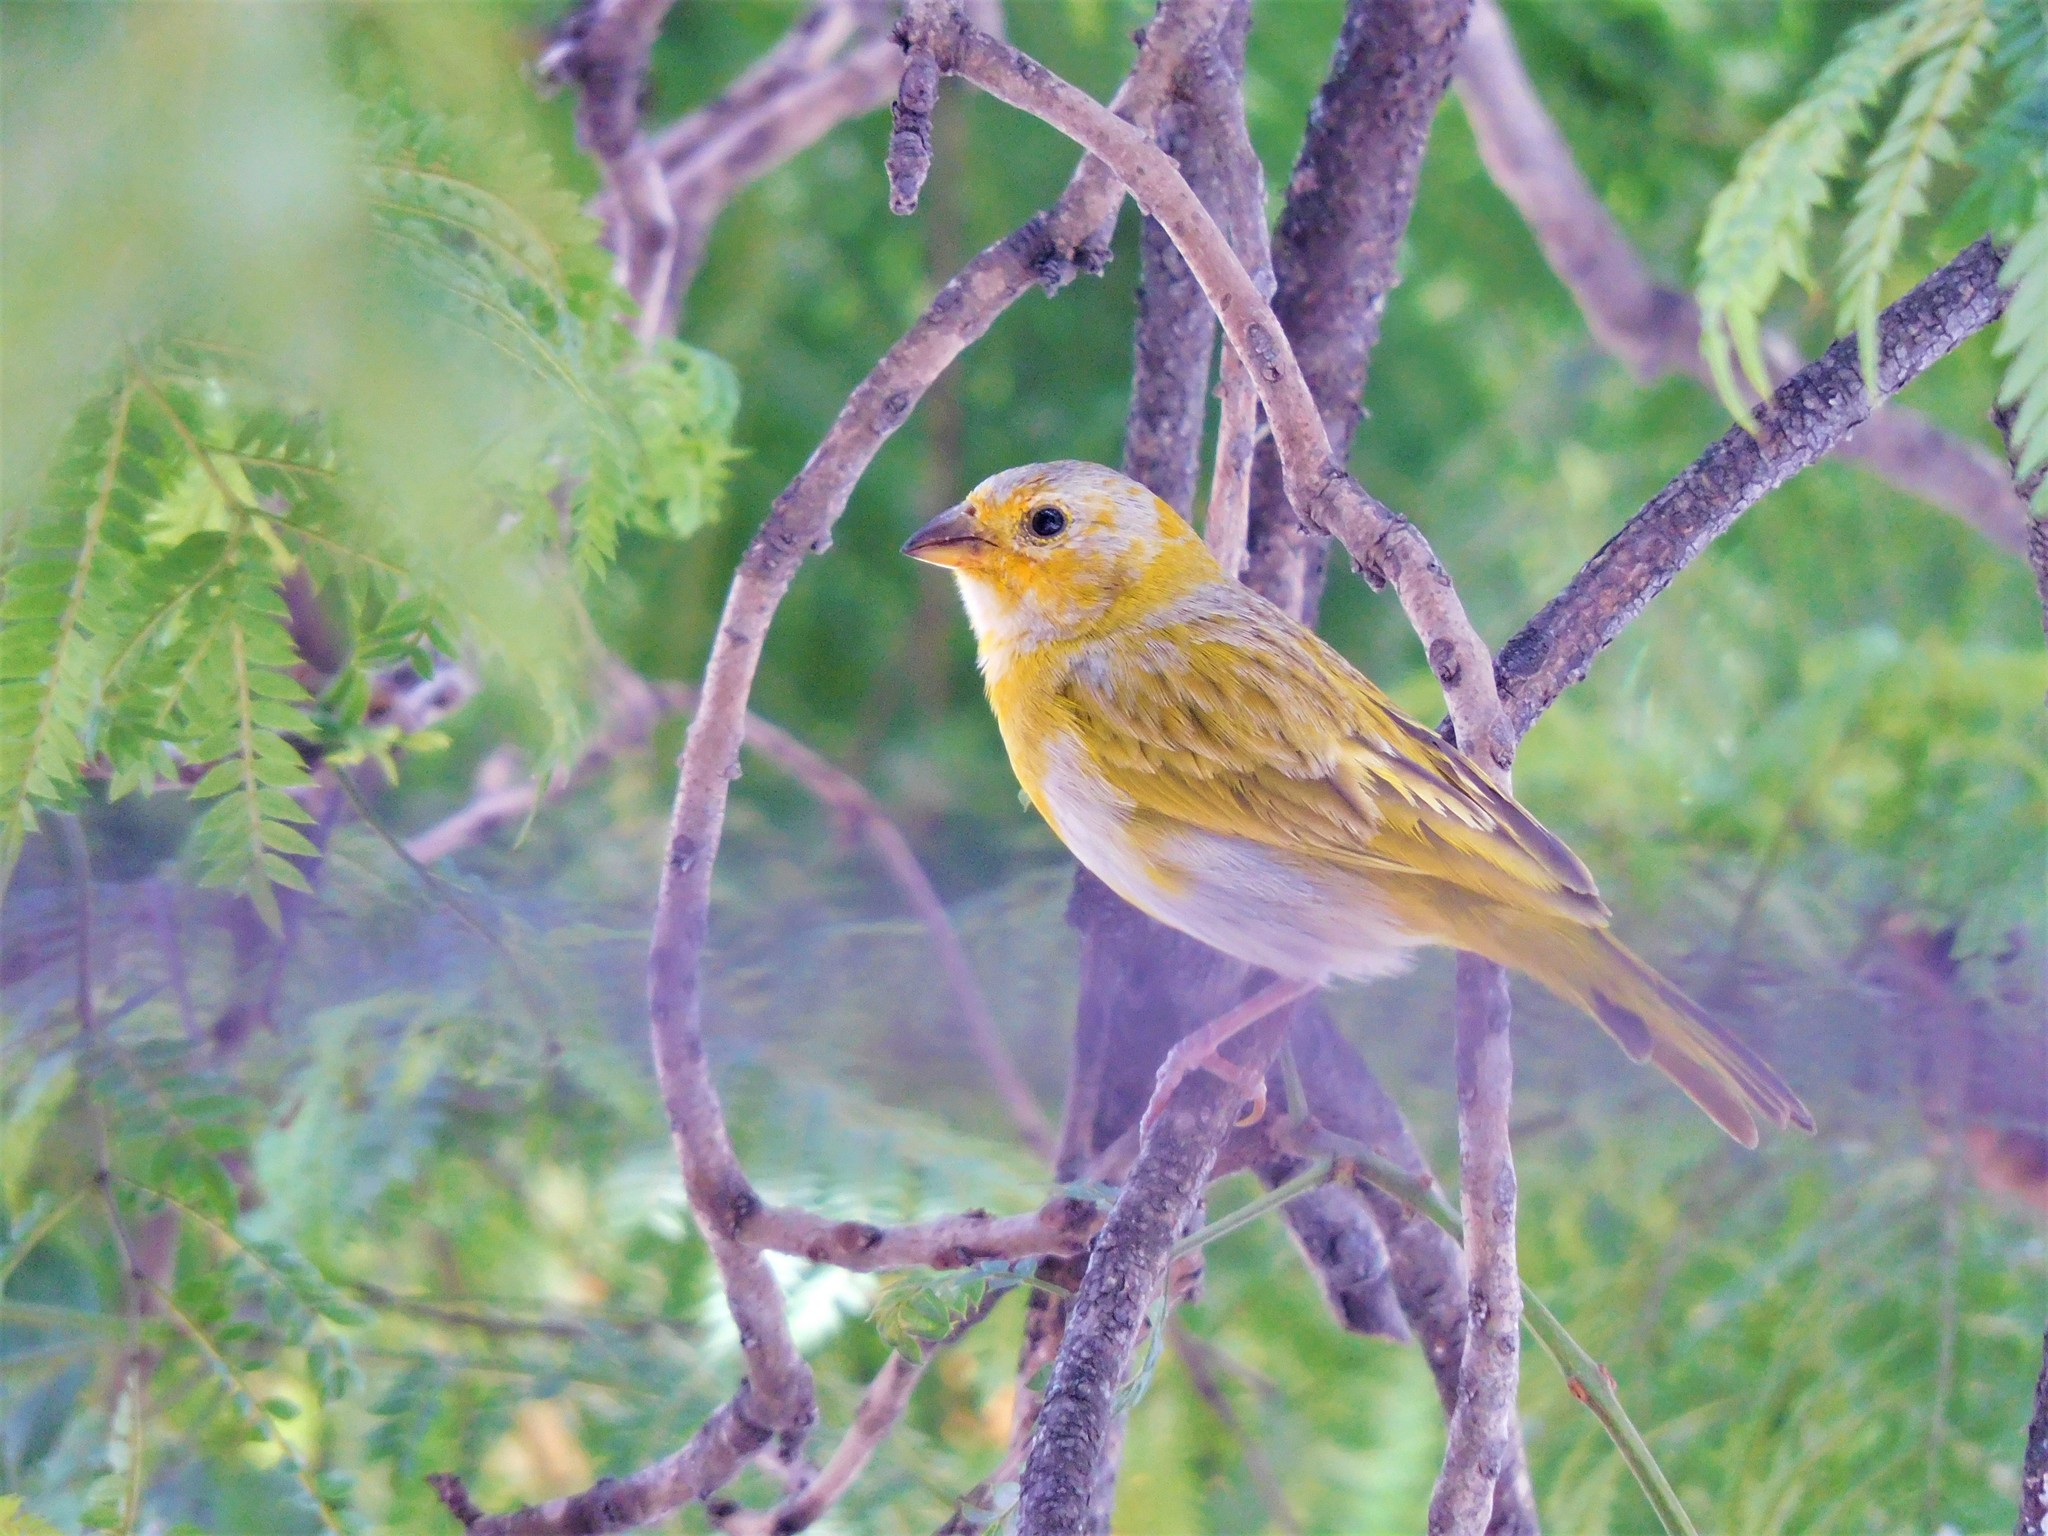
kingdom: Animalia
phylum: Chordata
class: Aves
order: Passeriformes
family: Thraupidae
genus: Sicalis
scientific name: Sicalis flaveola
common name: Saffron finch
